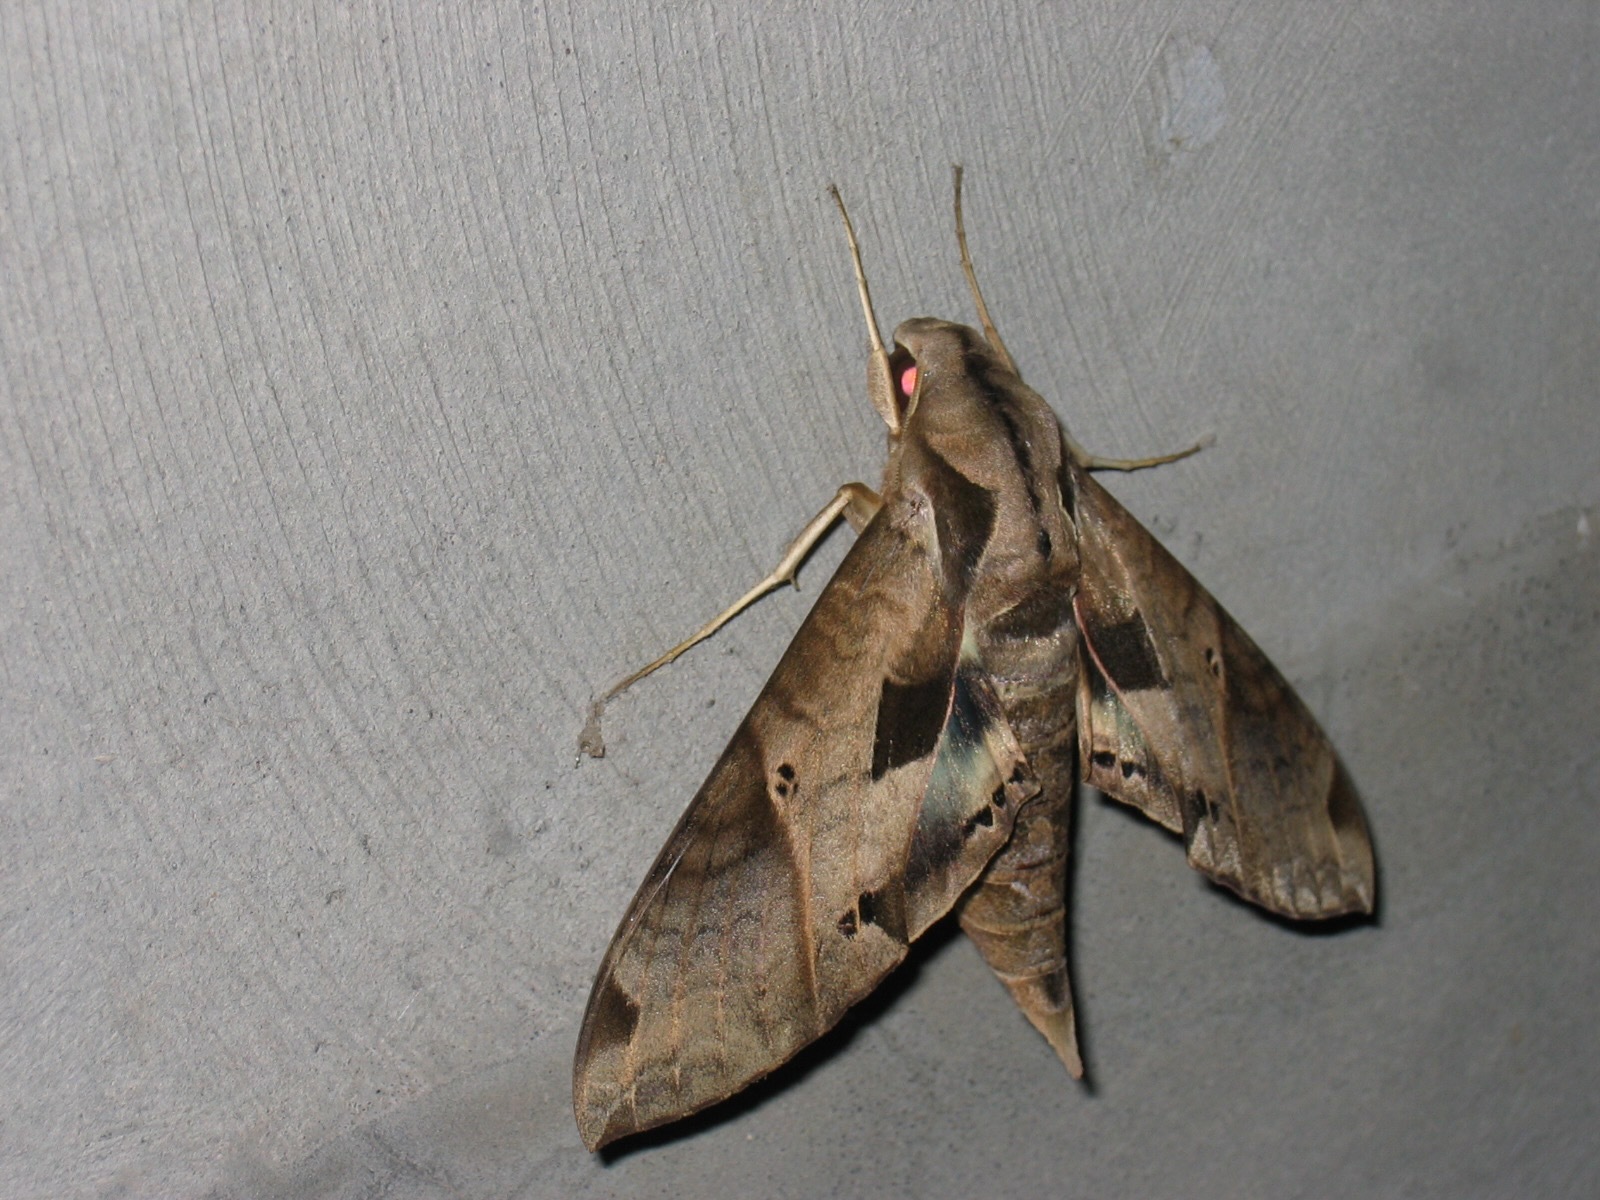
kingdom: Animalia
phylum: Arthropoda
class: Insecta
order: Lepidoptera
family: Sphingidae
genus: Eumorpha
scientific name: Eumorpha satellitia
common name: Satellite sphinx
